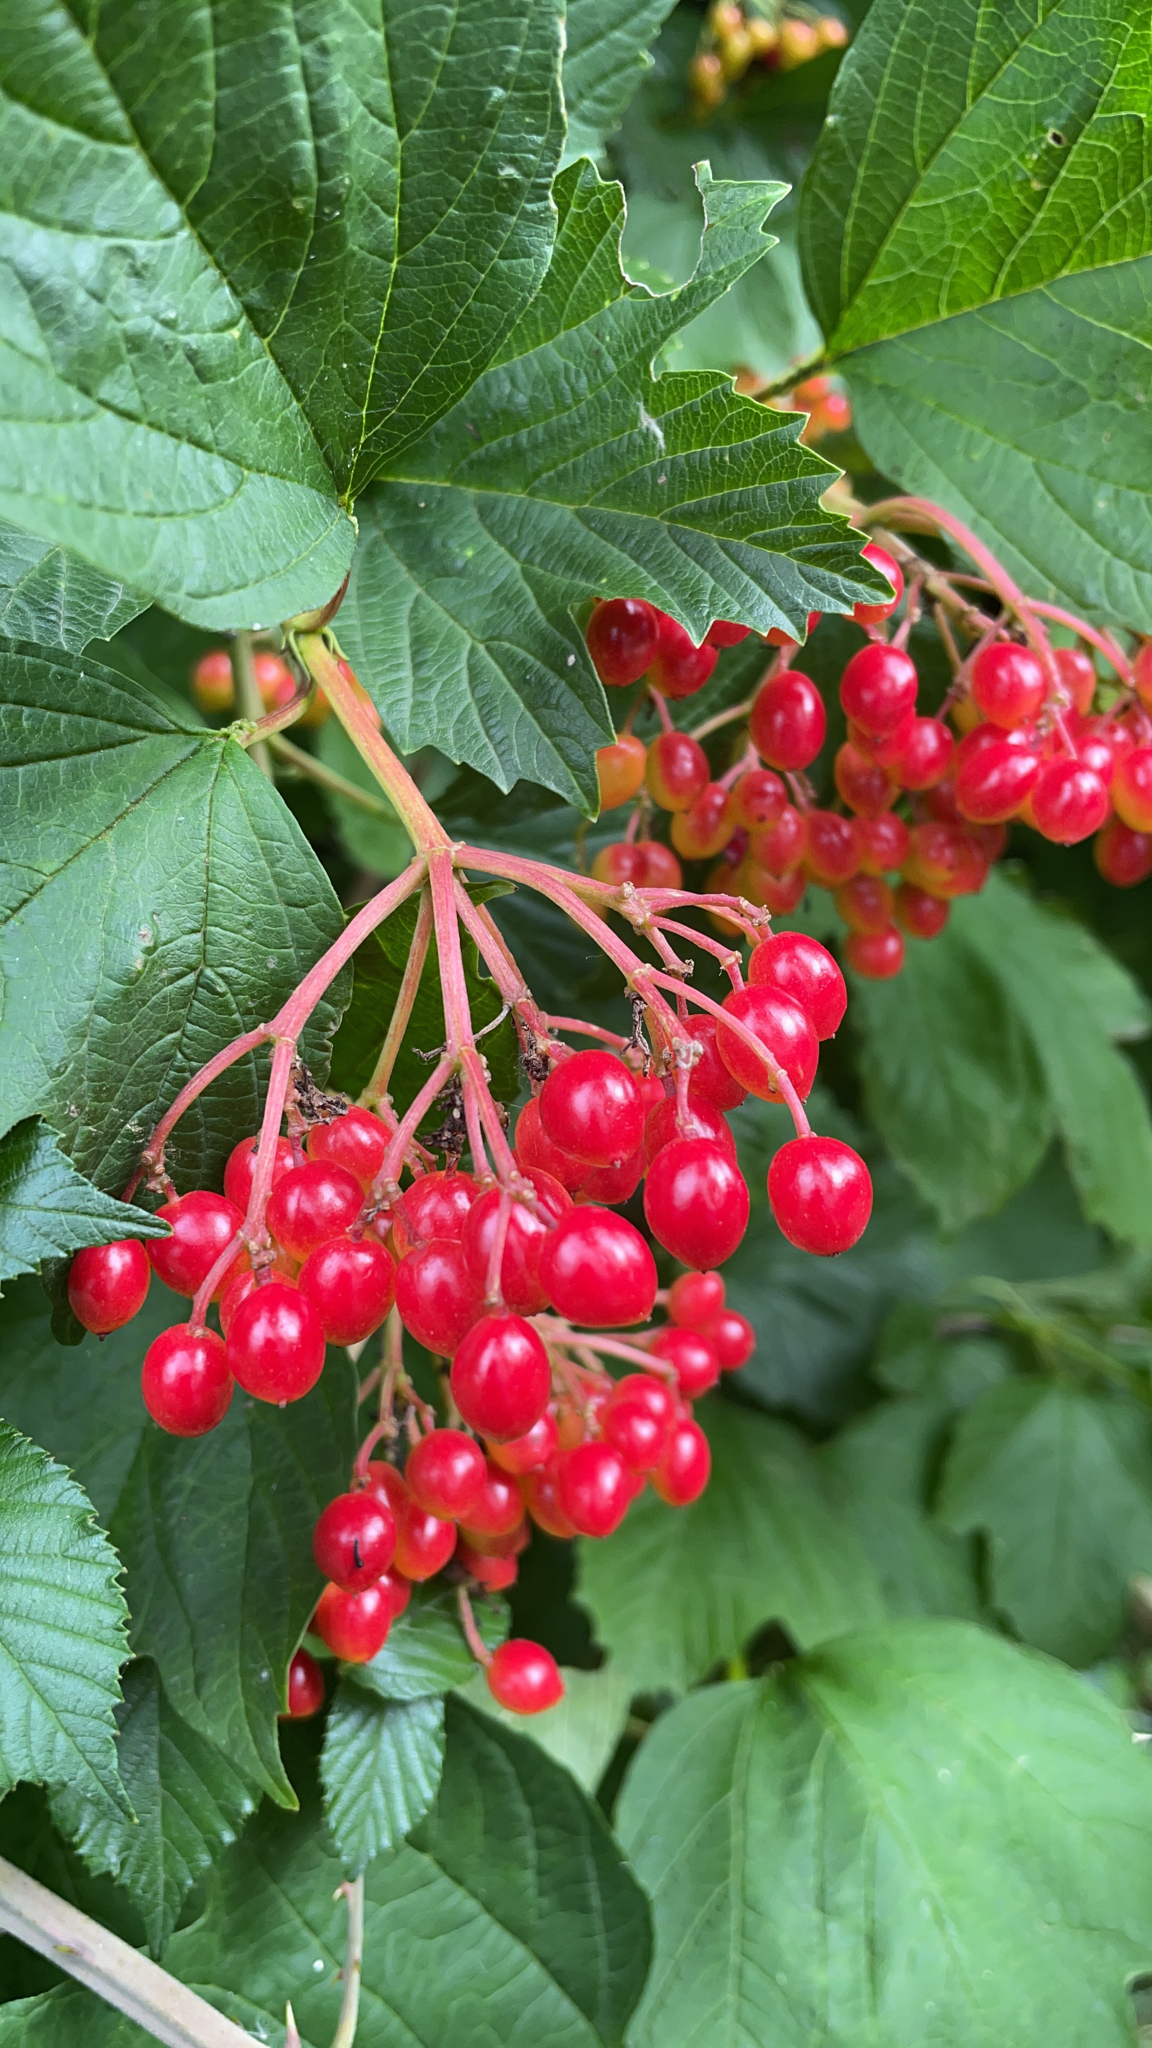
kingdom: Plantae
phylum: Tracheophyta
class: Magnoliopsida
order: Dipsacales
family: Viburnaceae
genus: Viburnum
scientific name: Viburnum opulus
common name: Guelder-rose
